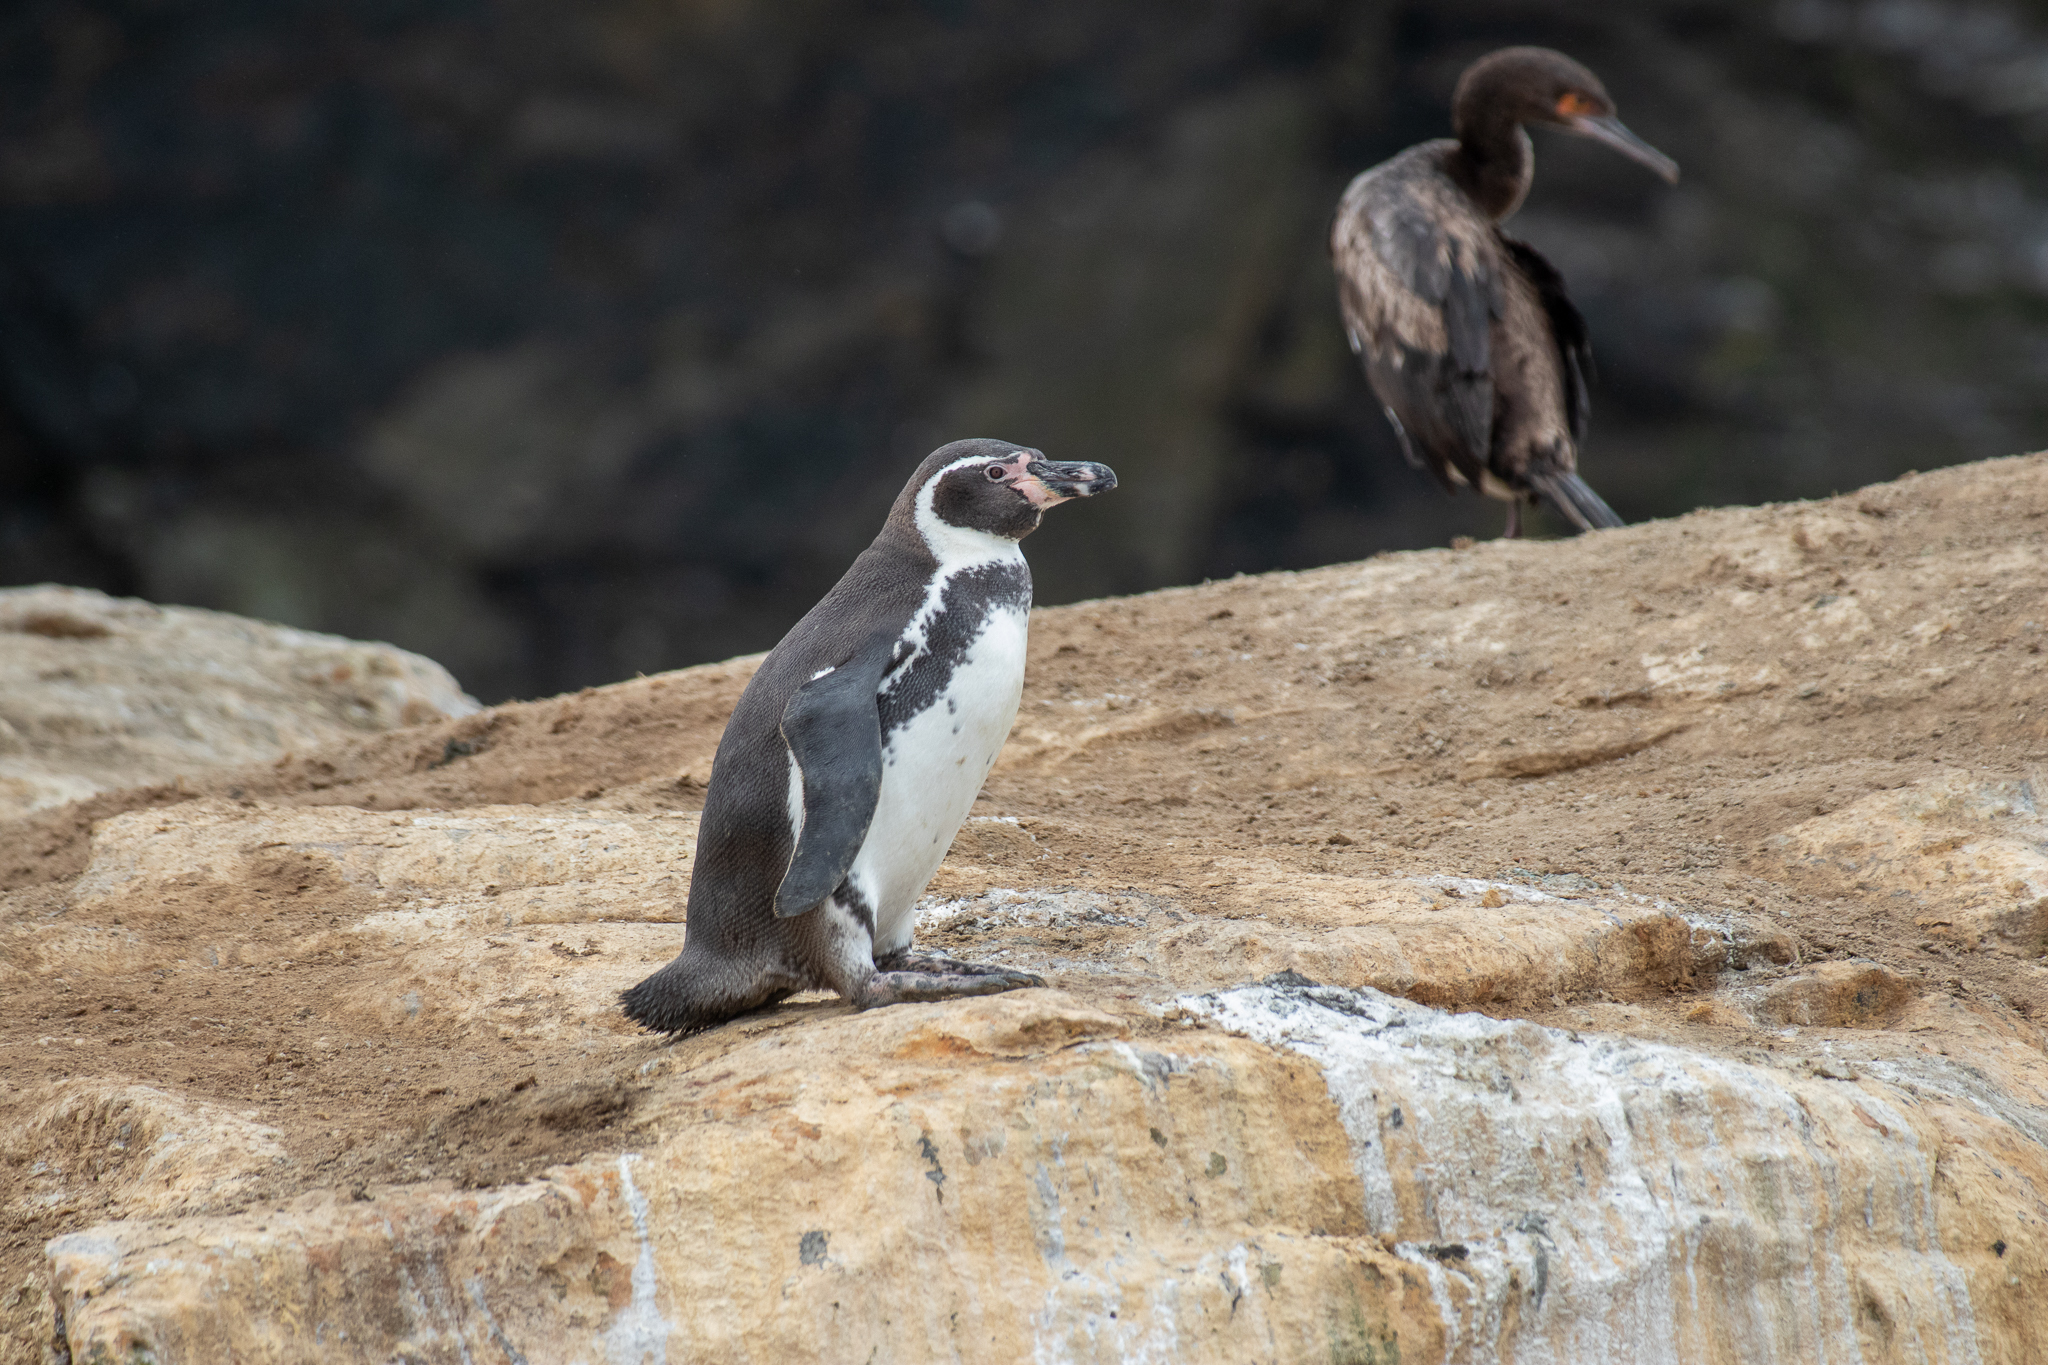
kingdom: Animalia
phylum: Chordata
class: Aves
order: Sphenisciformes
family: Spheniscidae
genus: Spheniscus
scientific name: Spheniscus humboldti
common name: Humboldt penguin
